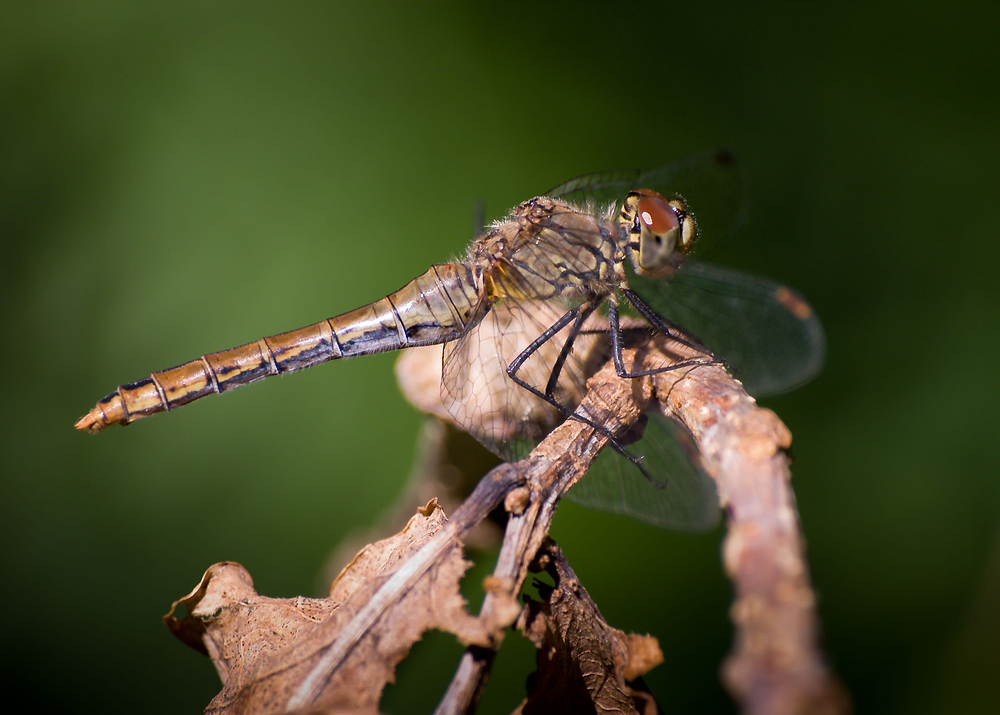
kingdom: Animalia
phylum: Arthropoda
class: Insecta
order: Odonata
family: Libellulidae
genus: Sympetrum
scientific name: Sympetrum sanguineum
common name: Ruddy darter
